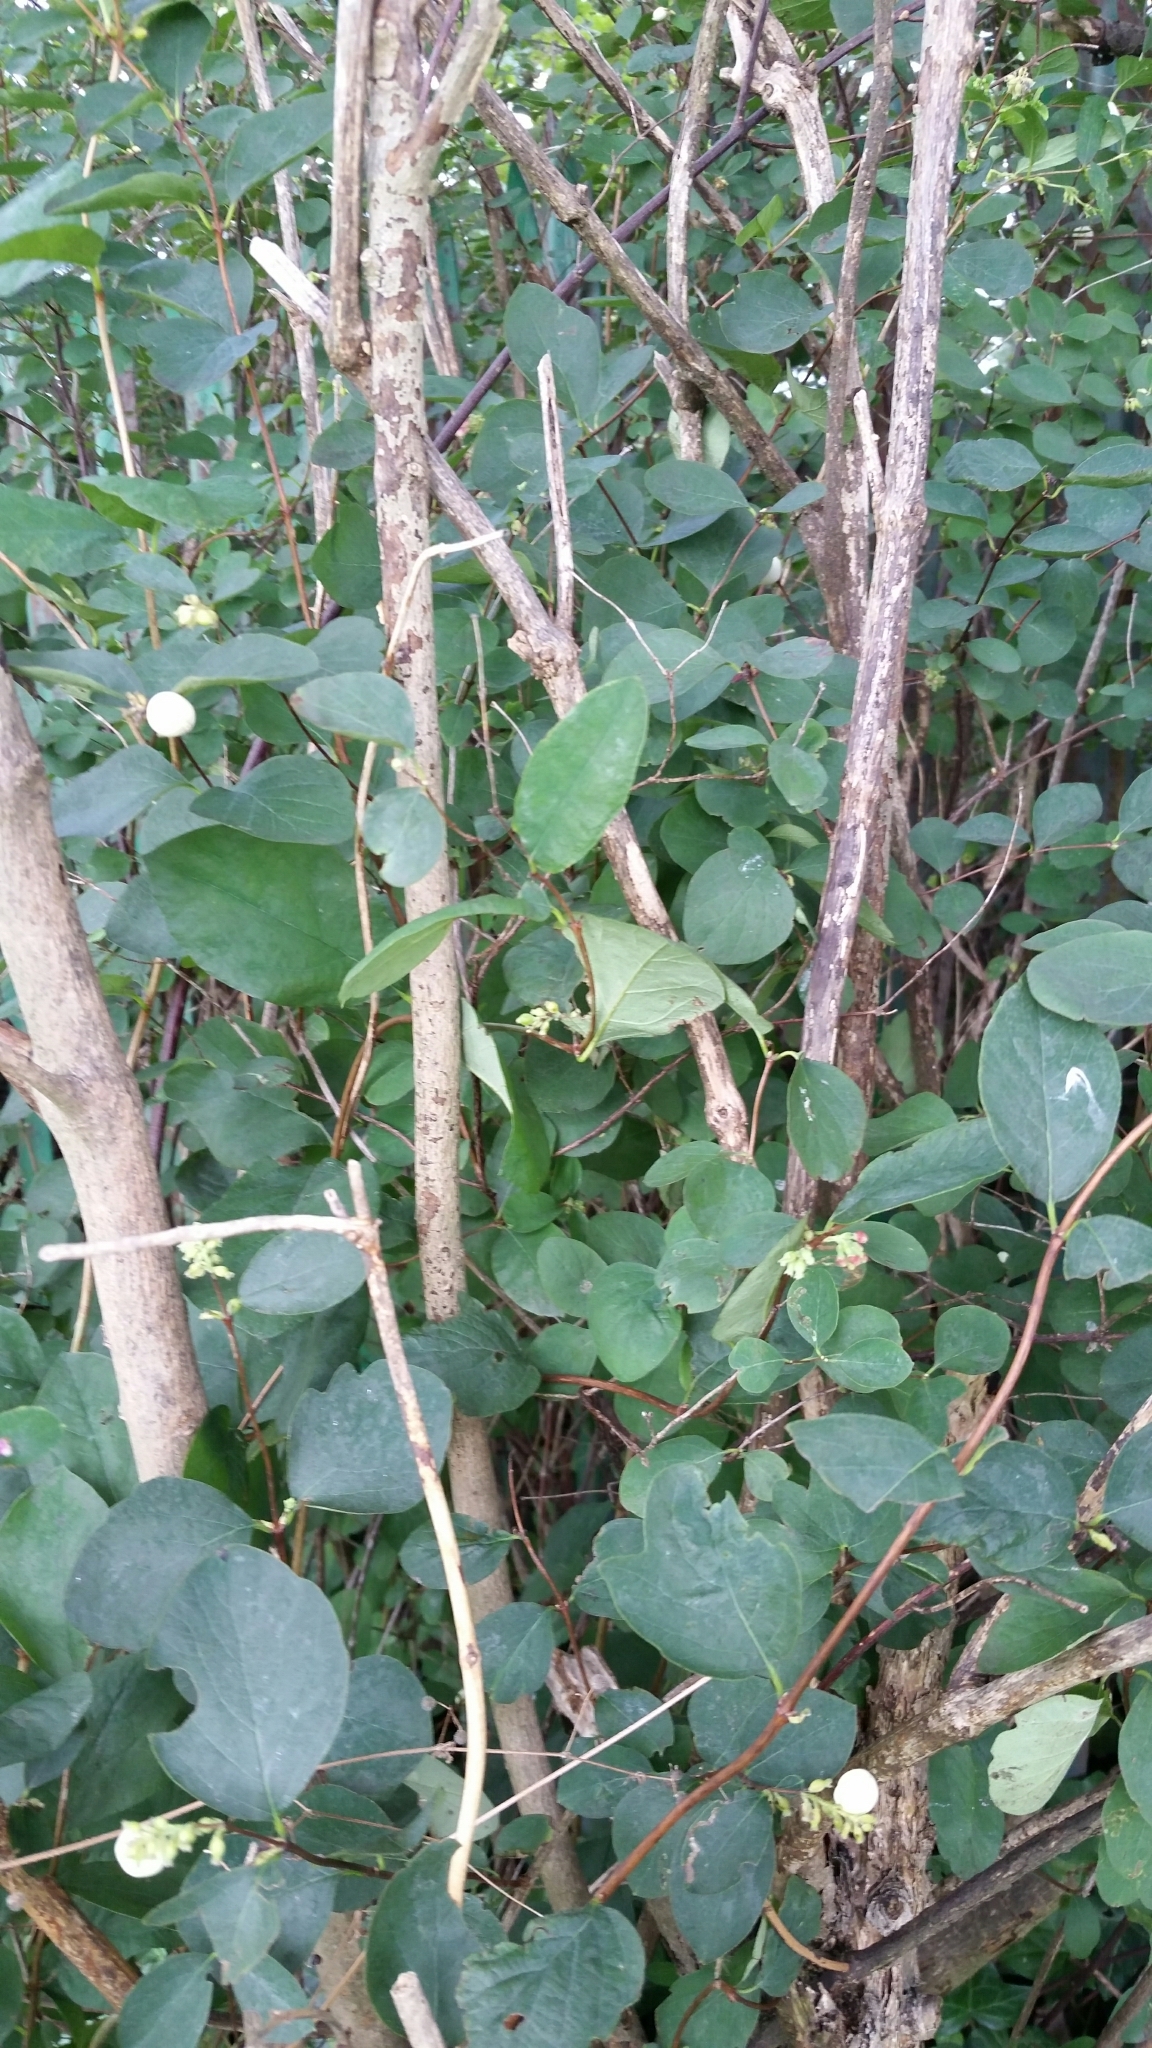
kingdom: Plantae
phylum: Tracheophyta
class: Magnoliopsida
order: Dipsacales
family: Caprifoliaceae
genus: Symphoricarpos
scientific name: Symphoricarpos albus
